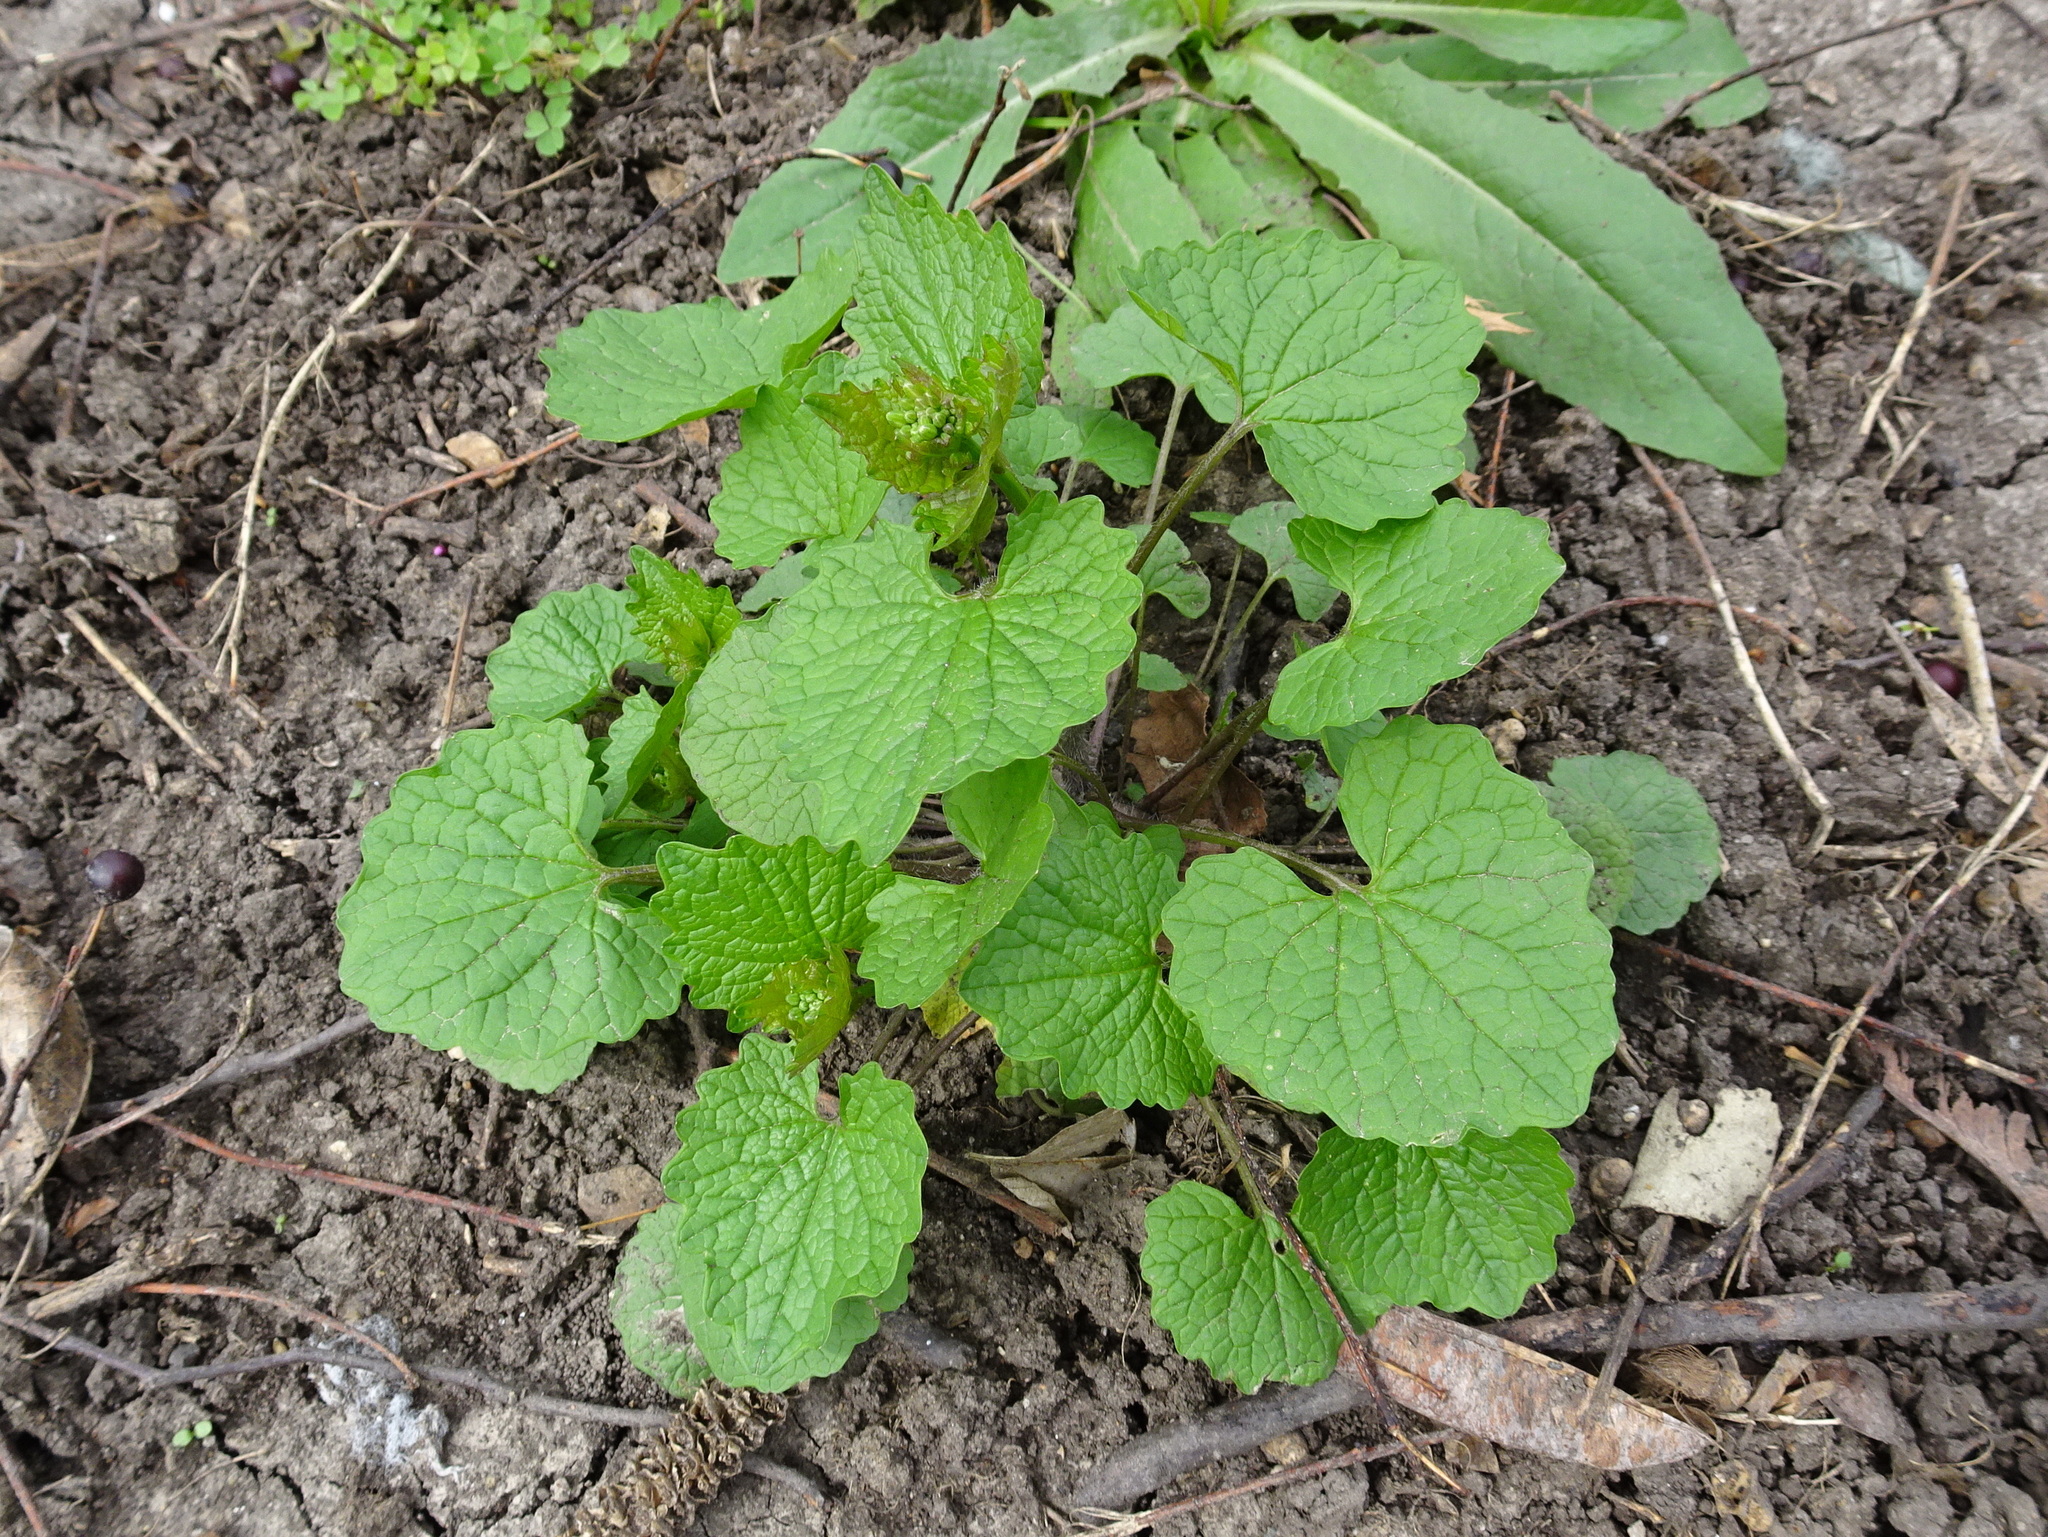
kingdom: Plantae
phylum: Tracheophyta
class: Magnoliopsida
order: Brassicales
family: Brassicaceae
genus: Alliaria
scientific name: Alliaria petiolata
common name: Garlic mustard
